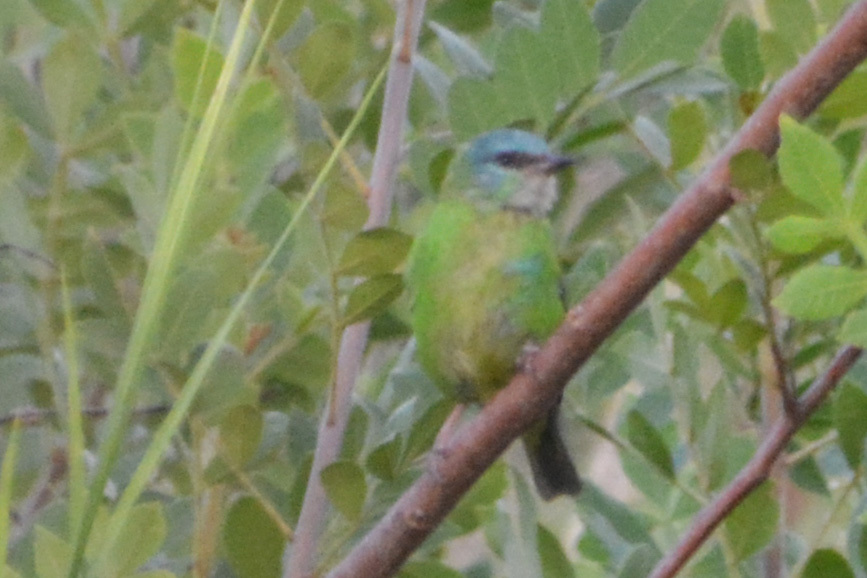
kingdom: Animalia
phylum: Chordata
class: Aves
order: Passeriformes
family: Thraupidae
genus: Dacnis
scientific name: Dacnis cayana
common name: Blue dacnis
